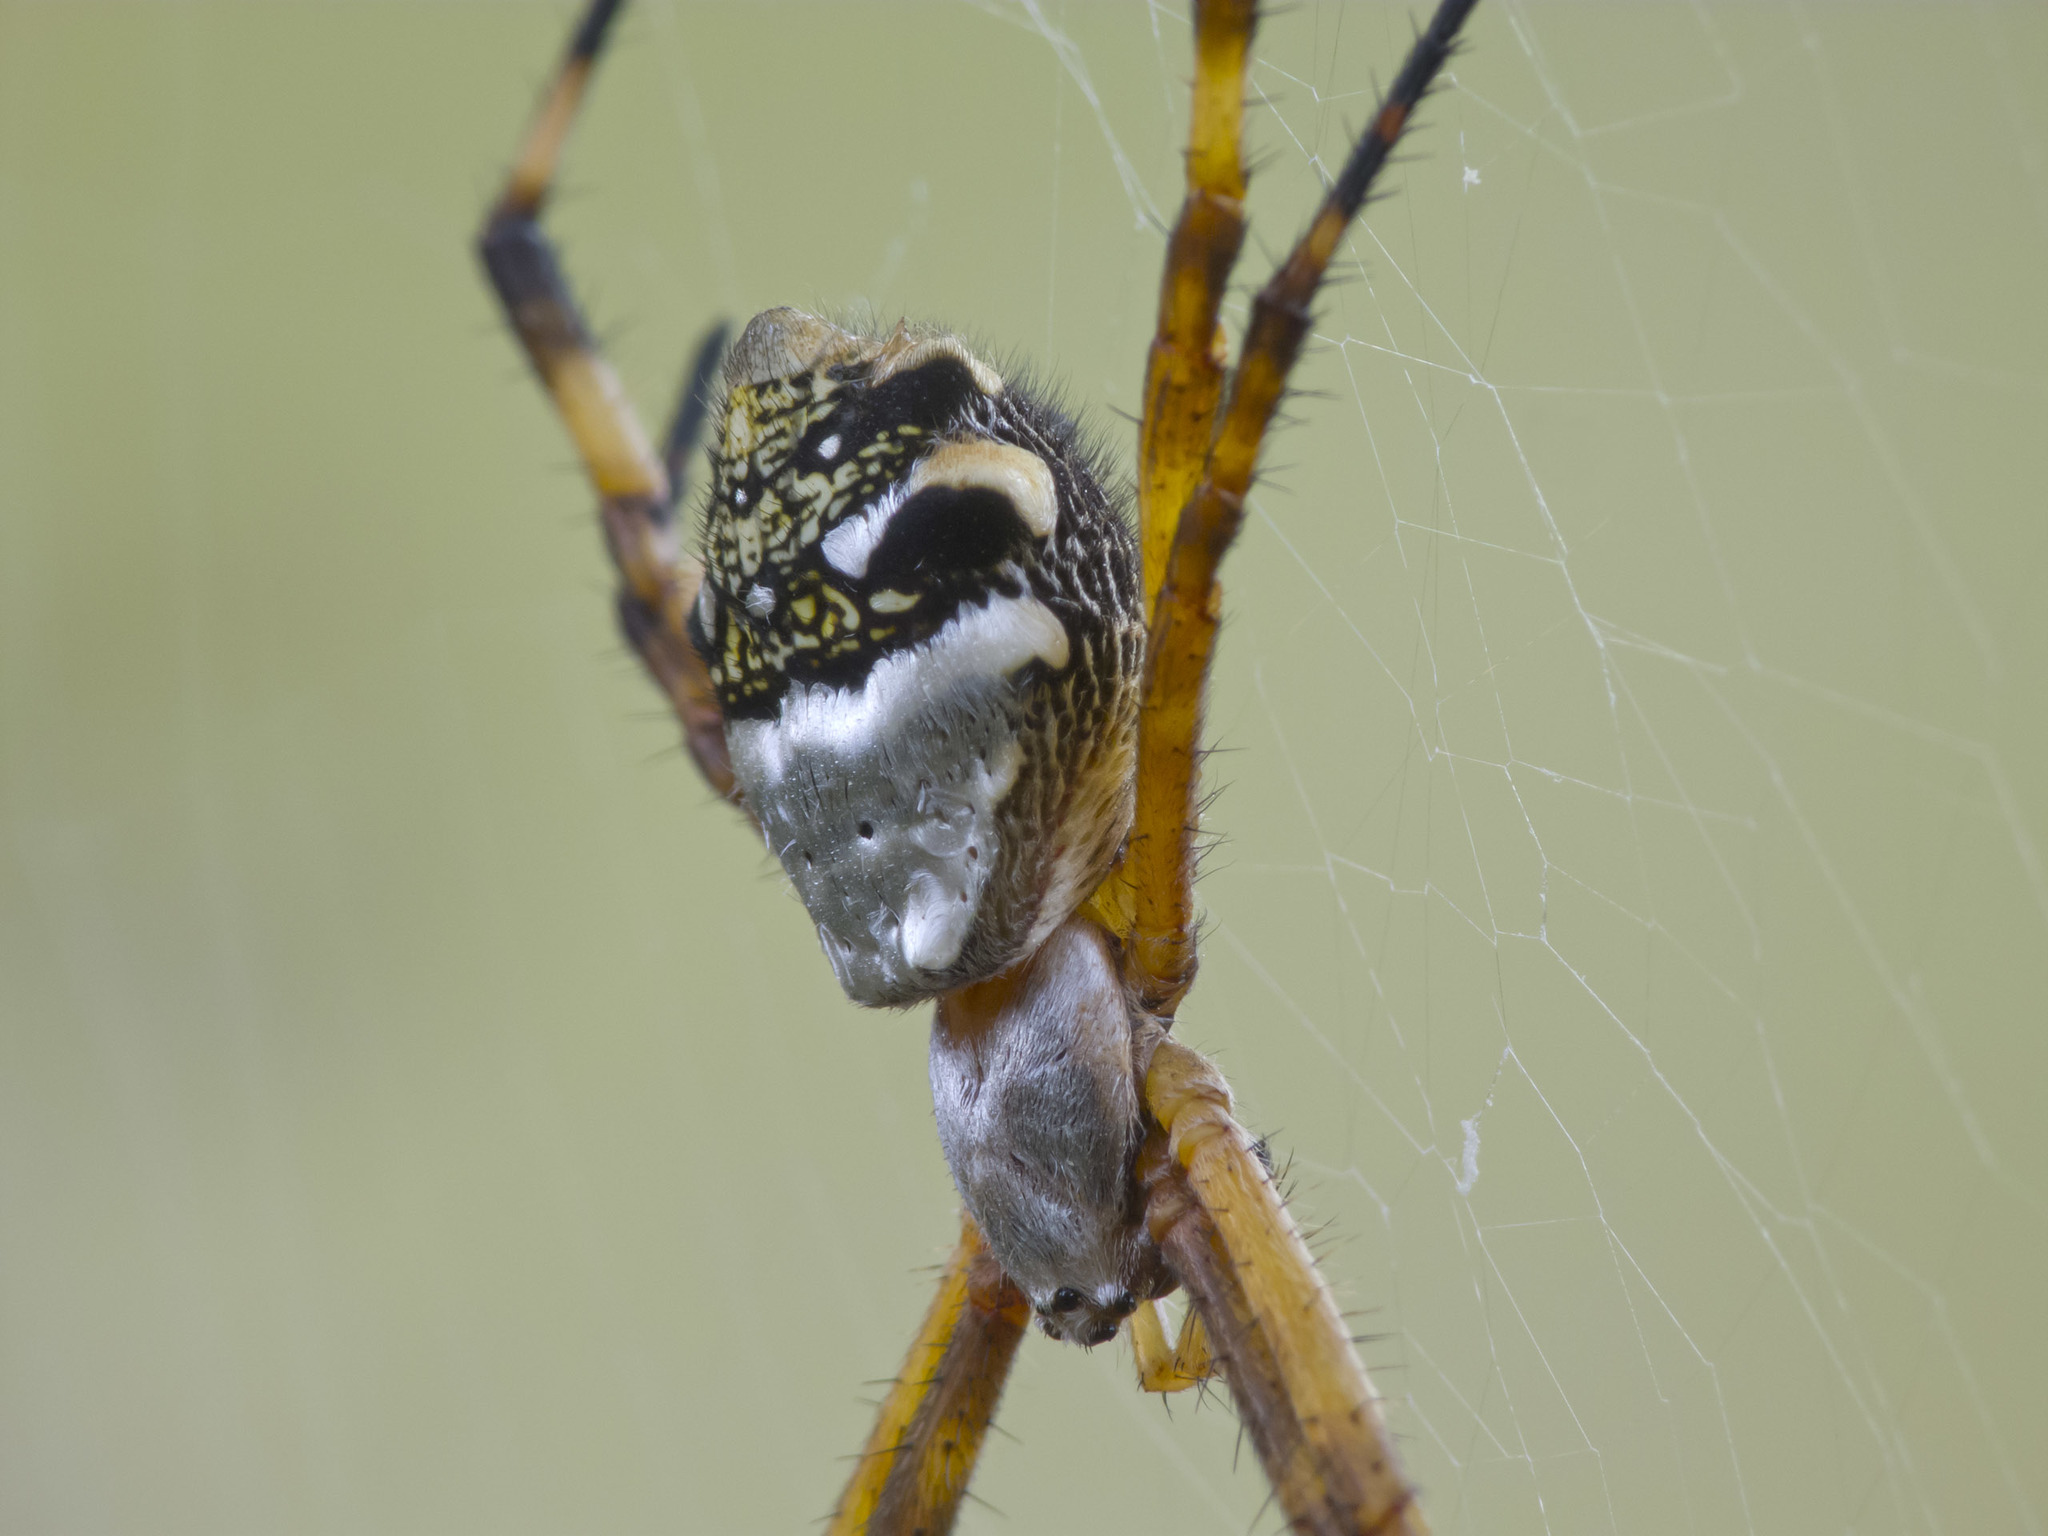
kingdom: Animalia
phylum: Arthropoda
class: Arachnida
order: Araneae
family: Araneidae
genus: Argiope
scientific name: Argiope argentata
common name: Orb weavers
